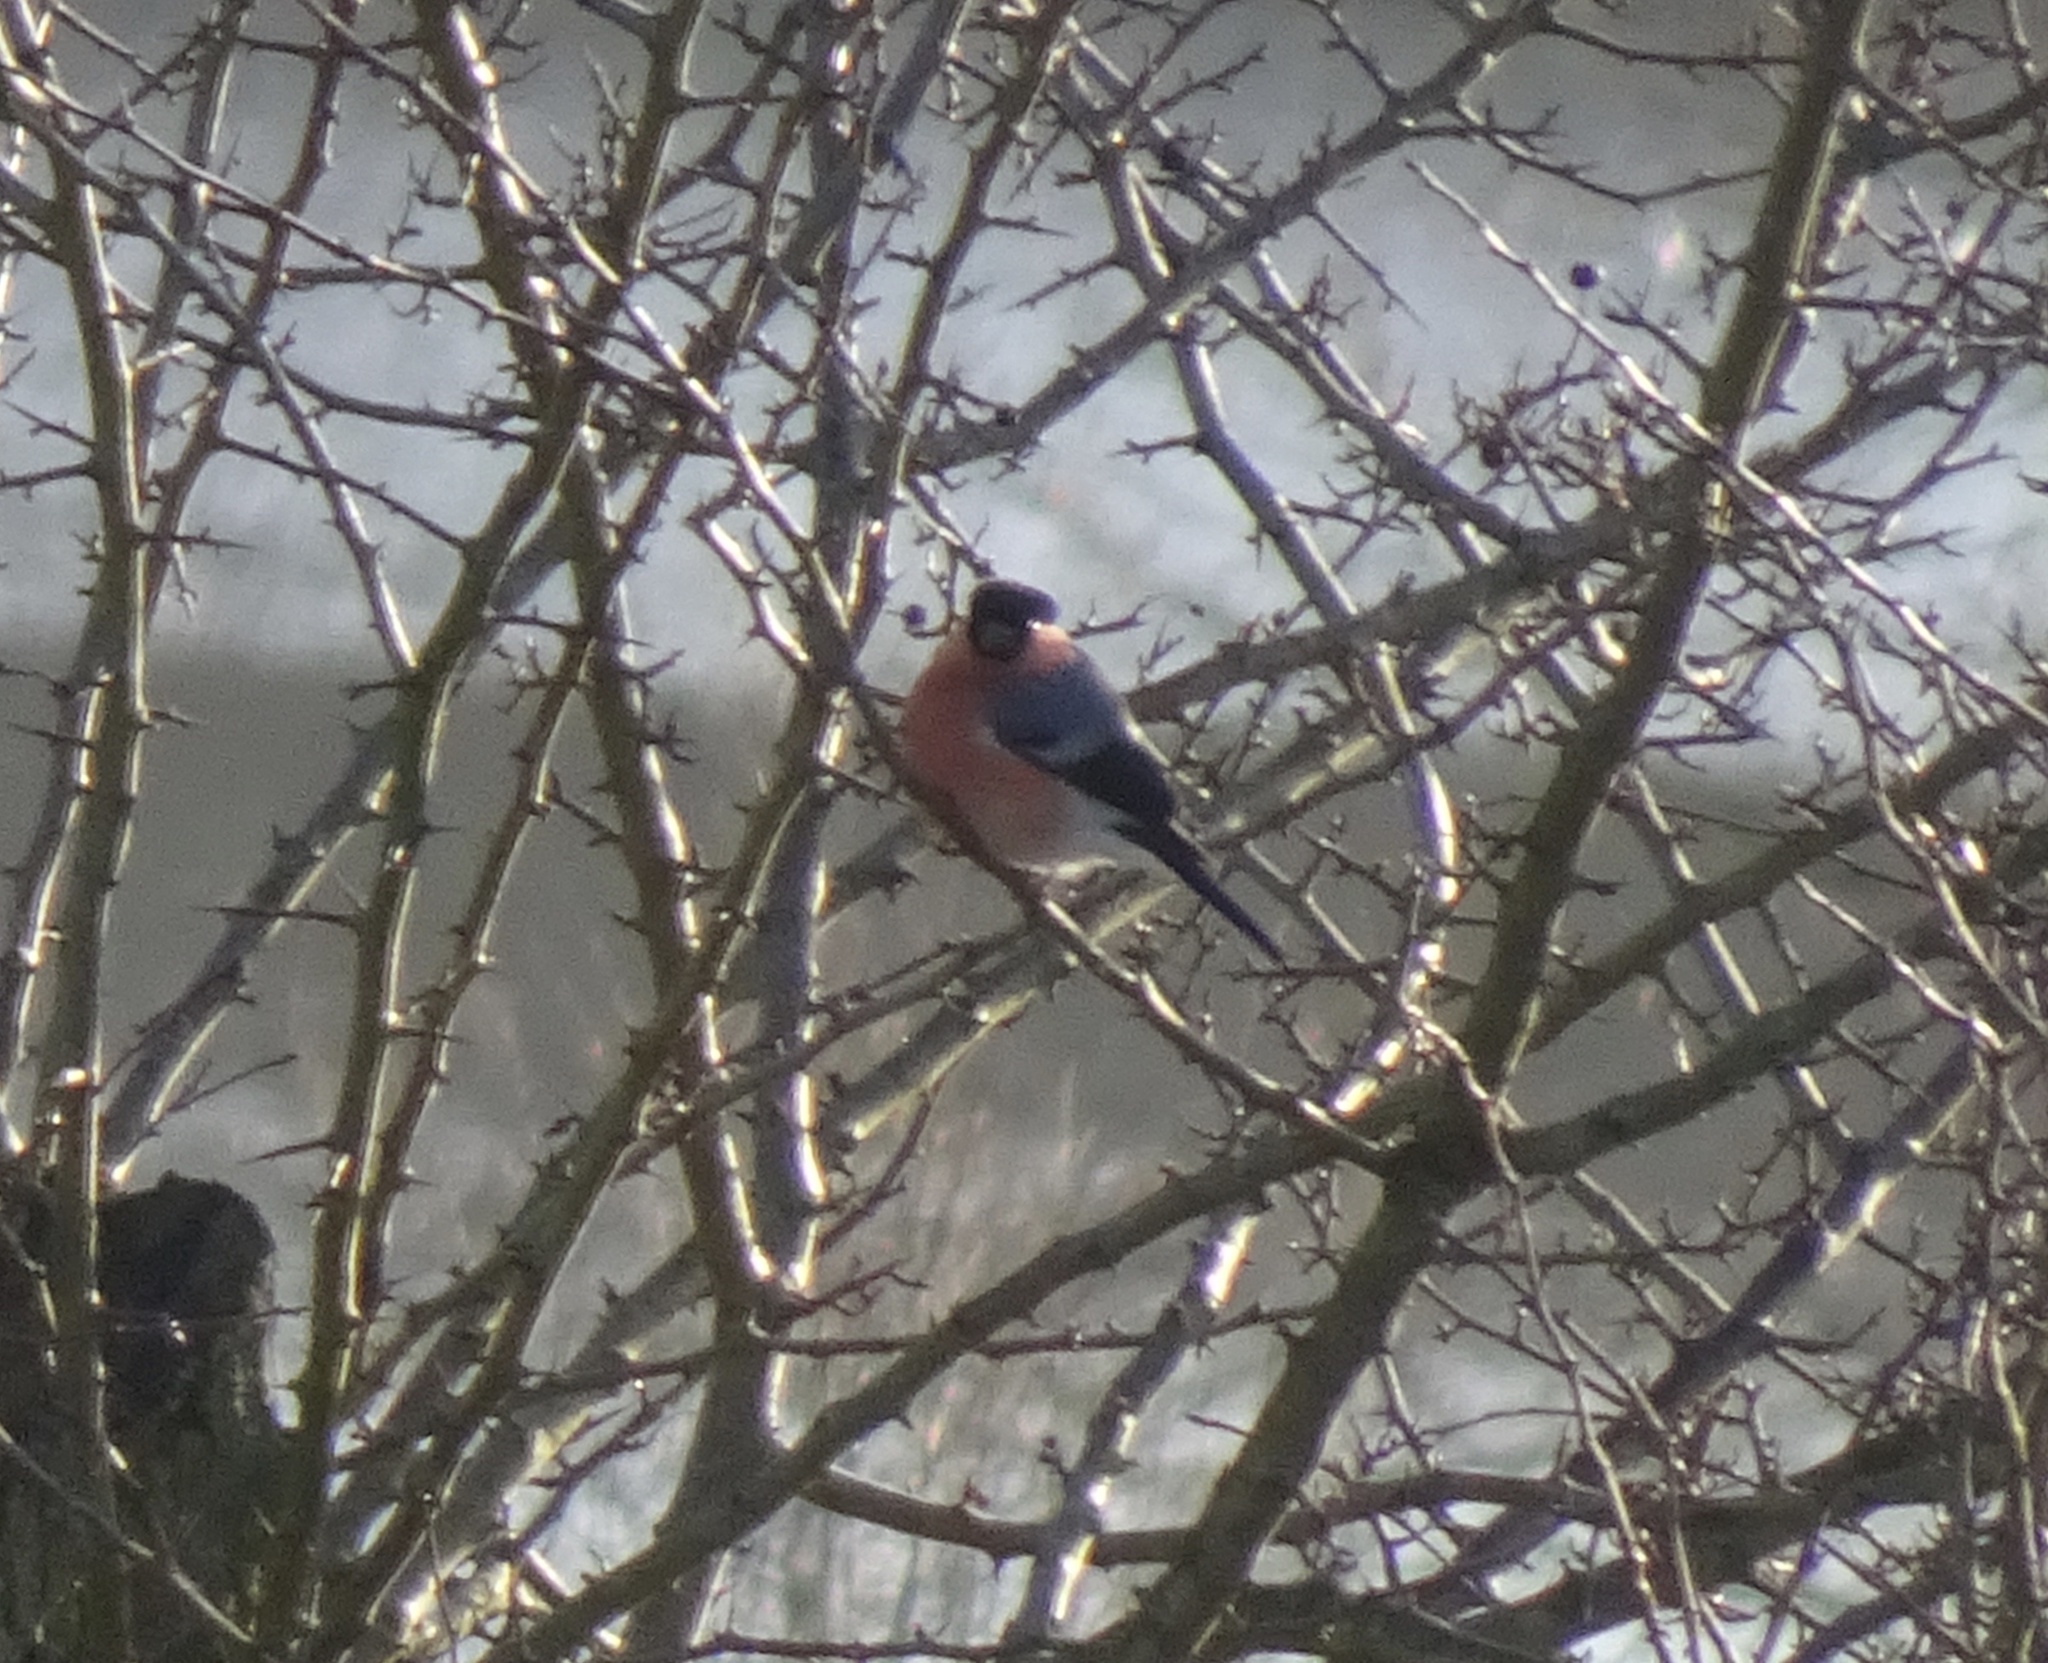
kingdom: Animalia
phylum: Chordata
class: Aves
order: Passeriformes
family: Fringillidae
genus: Pyrrhula
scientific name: Pyrrhula pyrrhula
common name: Eurasian bullfinch
